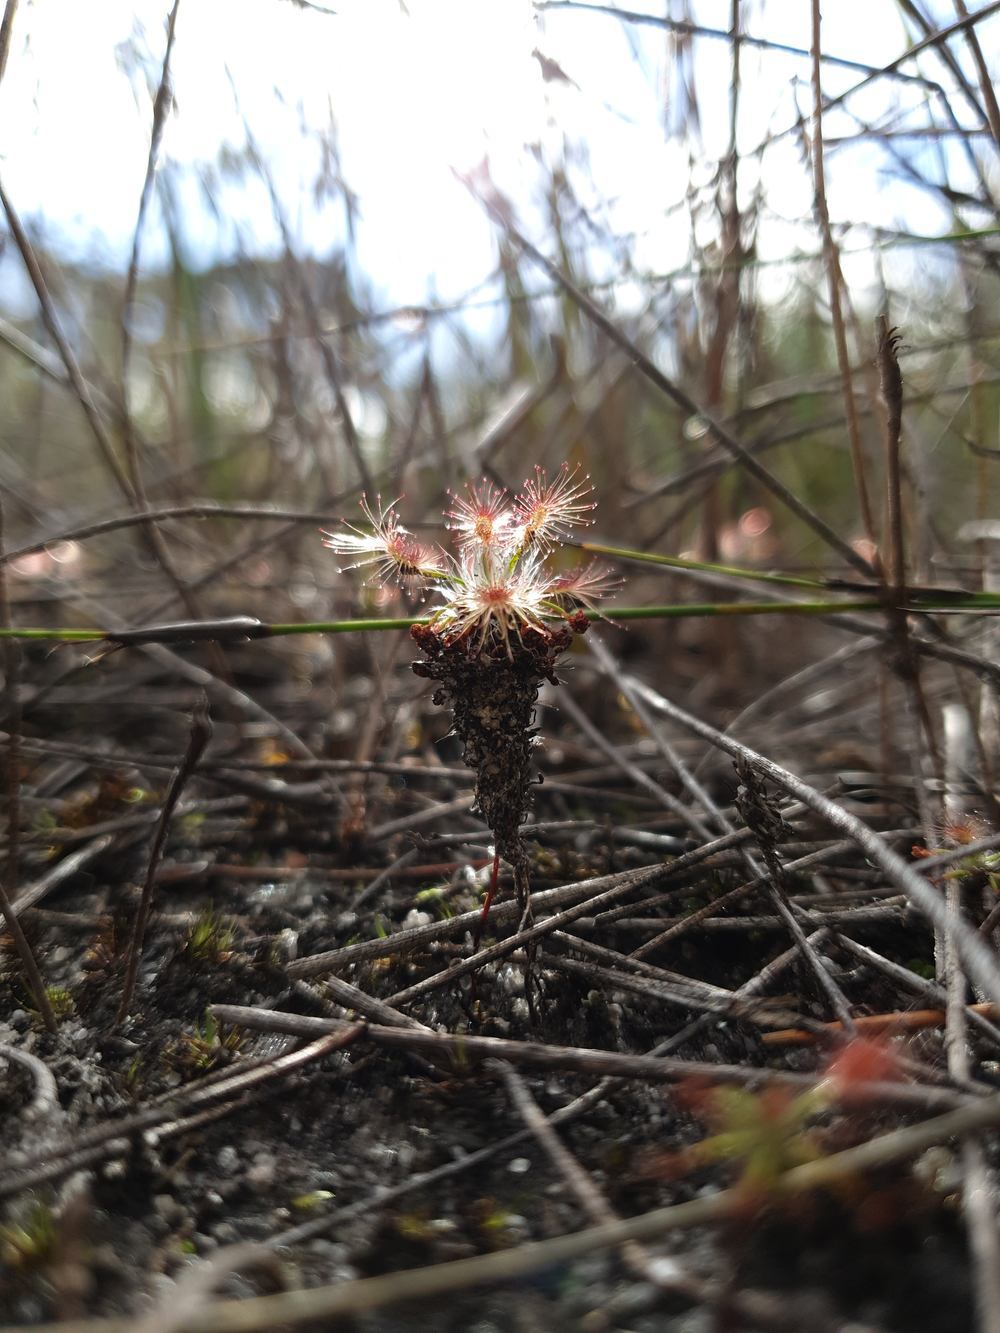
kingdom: Plantae
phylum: Tracheophyta
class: Magnoliopsida
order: Caryophyllales
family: Droseraceae
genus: Drosera
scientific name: Drosera verrucata
